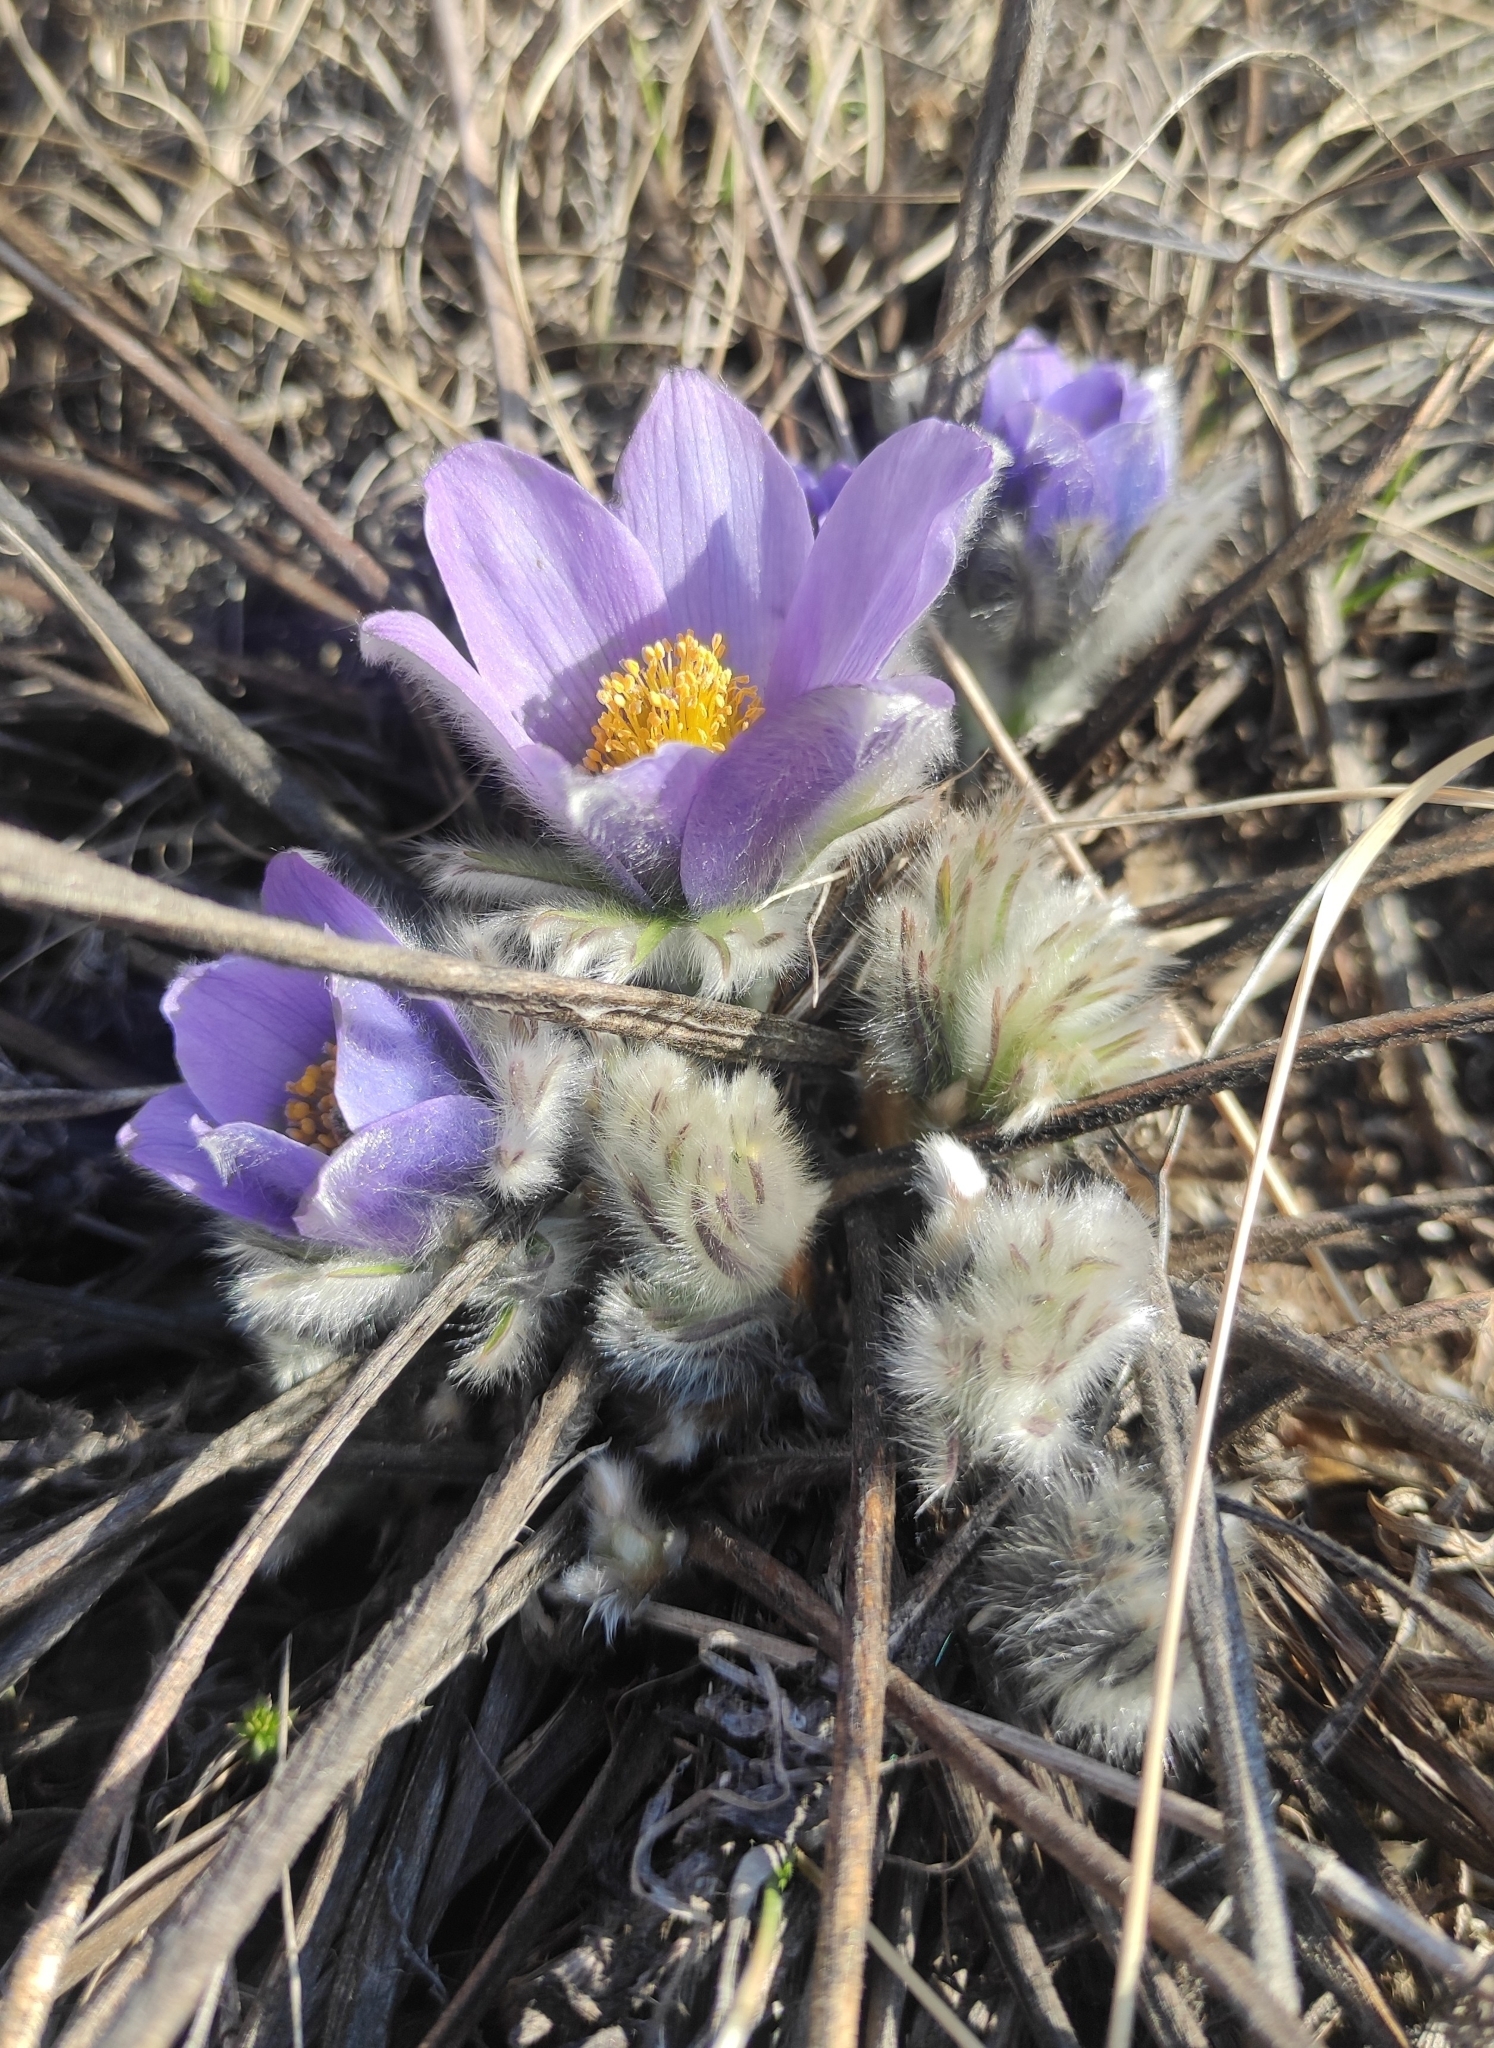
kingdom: Plantae
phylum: Tracheophyta
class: Magnoliopsida
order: Ranunculales
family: Ranunculaceae
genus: Pulsatilla
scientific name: Pulsatilla turczaninovii
